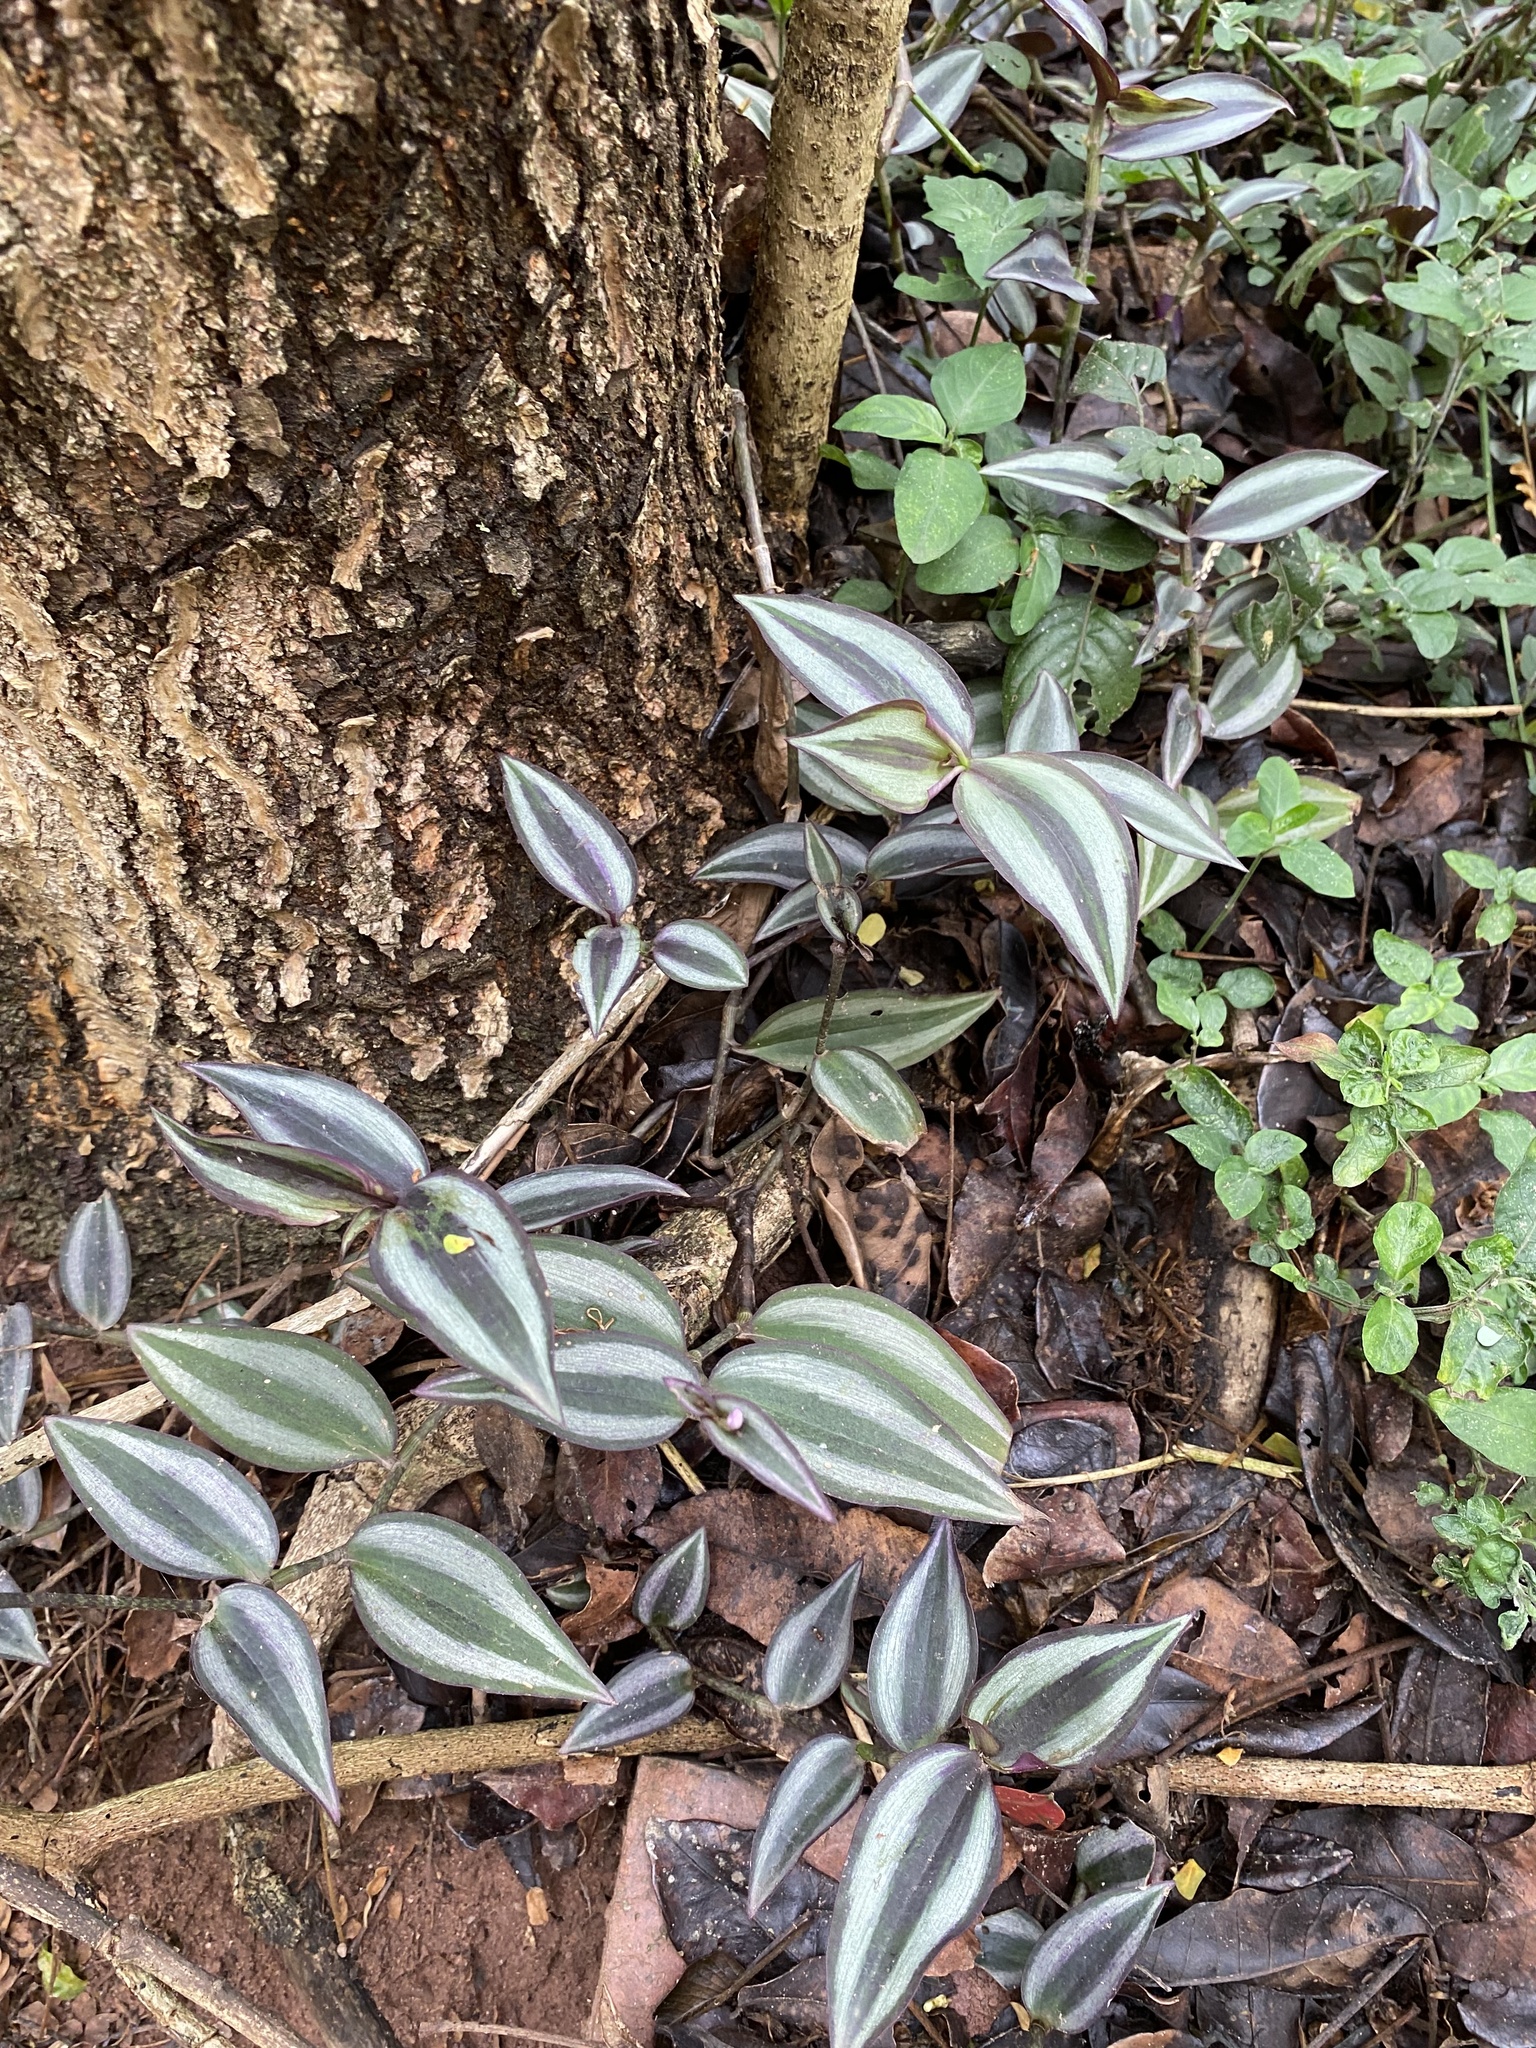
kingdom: Plantae
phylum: Tracheophyta
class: Liliopsida
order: Commelinales
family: Commelinaceae
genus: Tradescantia
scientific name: Tradescantia zebrina
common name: Inchplant
